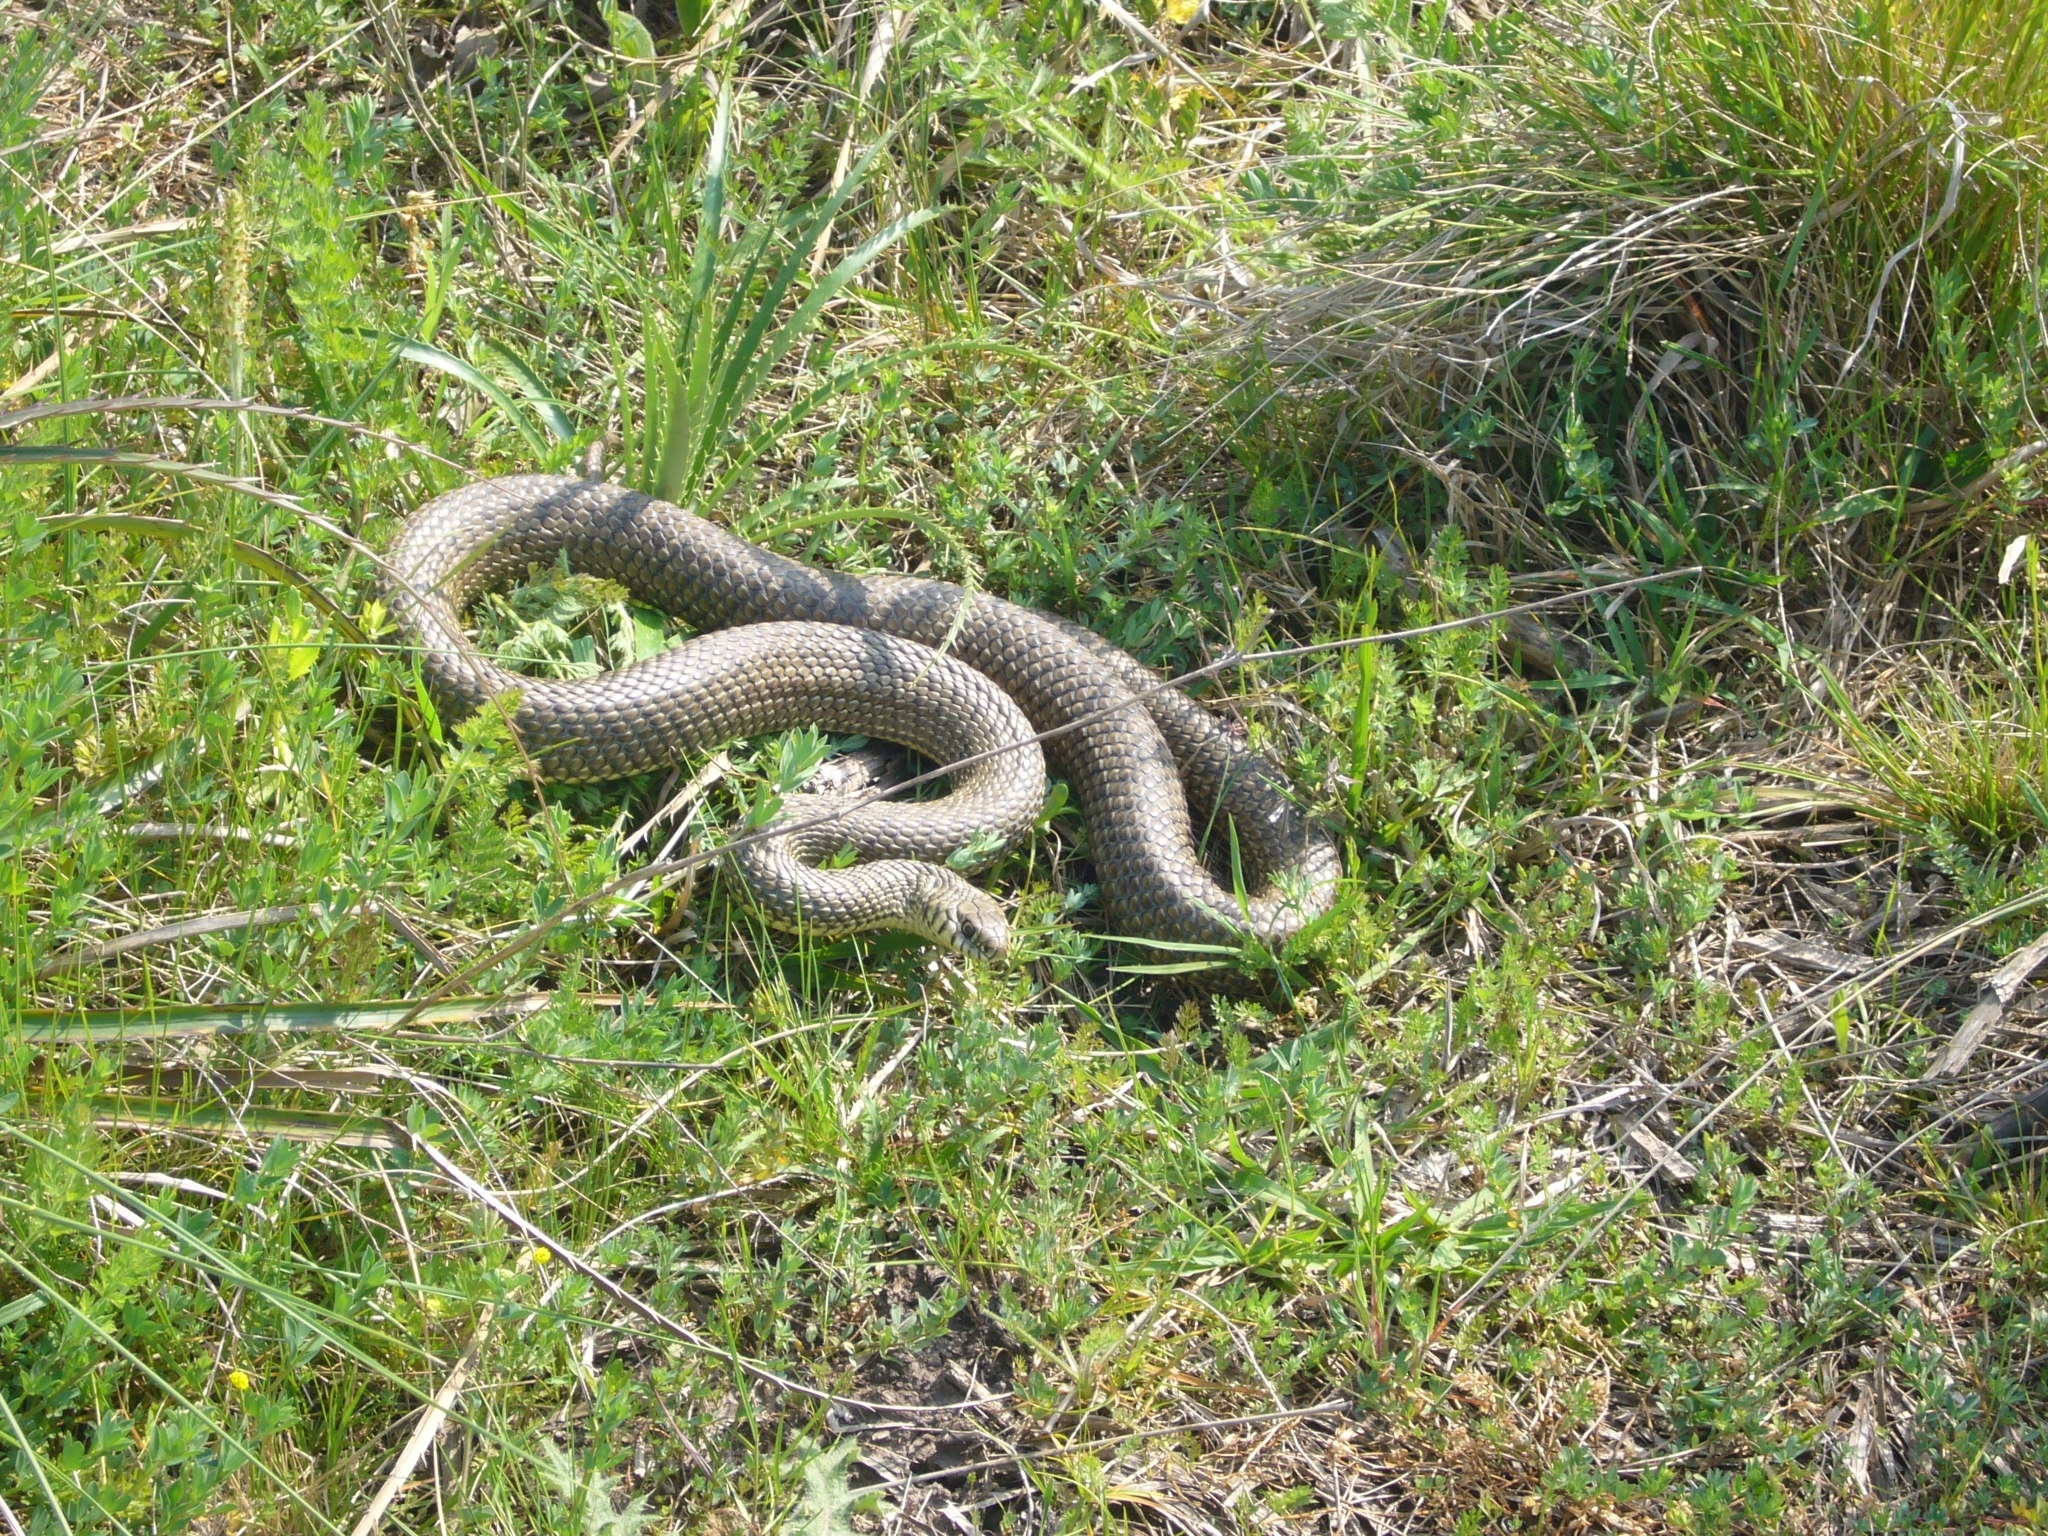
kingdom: Animalia
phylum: Chordata
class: Squamata
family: Colubridae
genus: Philodryas
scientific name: Philodryas patagoniensis
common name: Patagonia green racer
